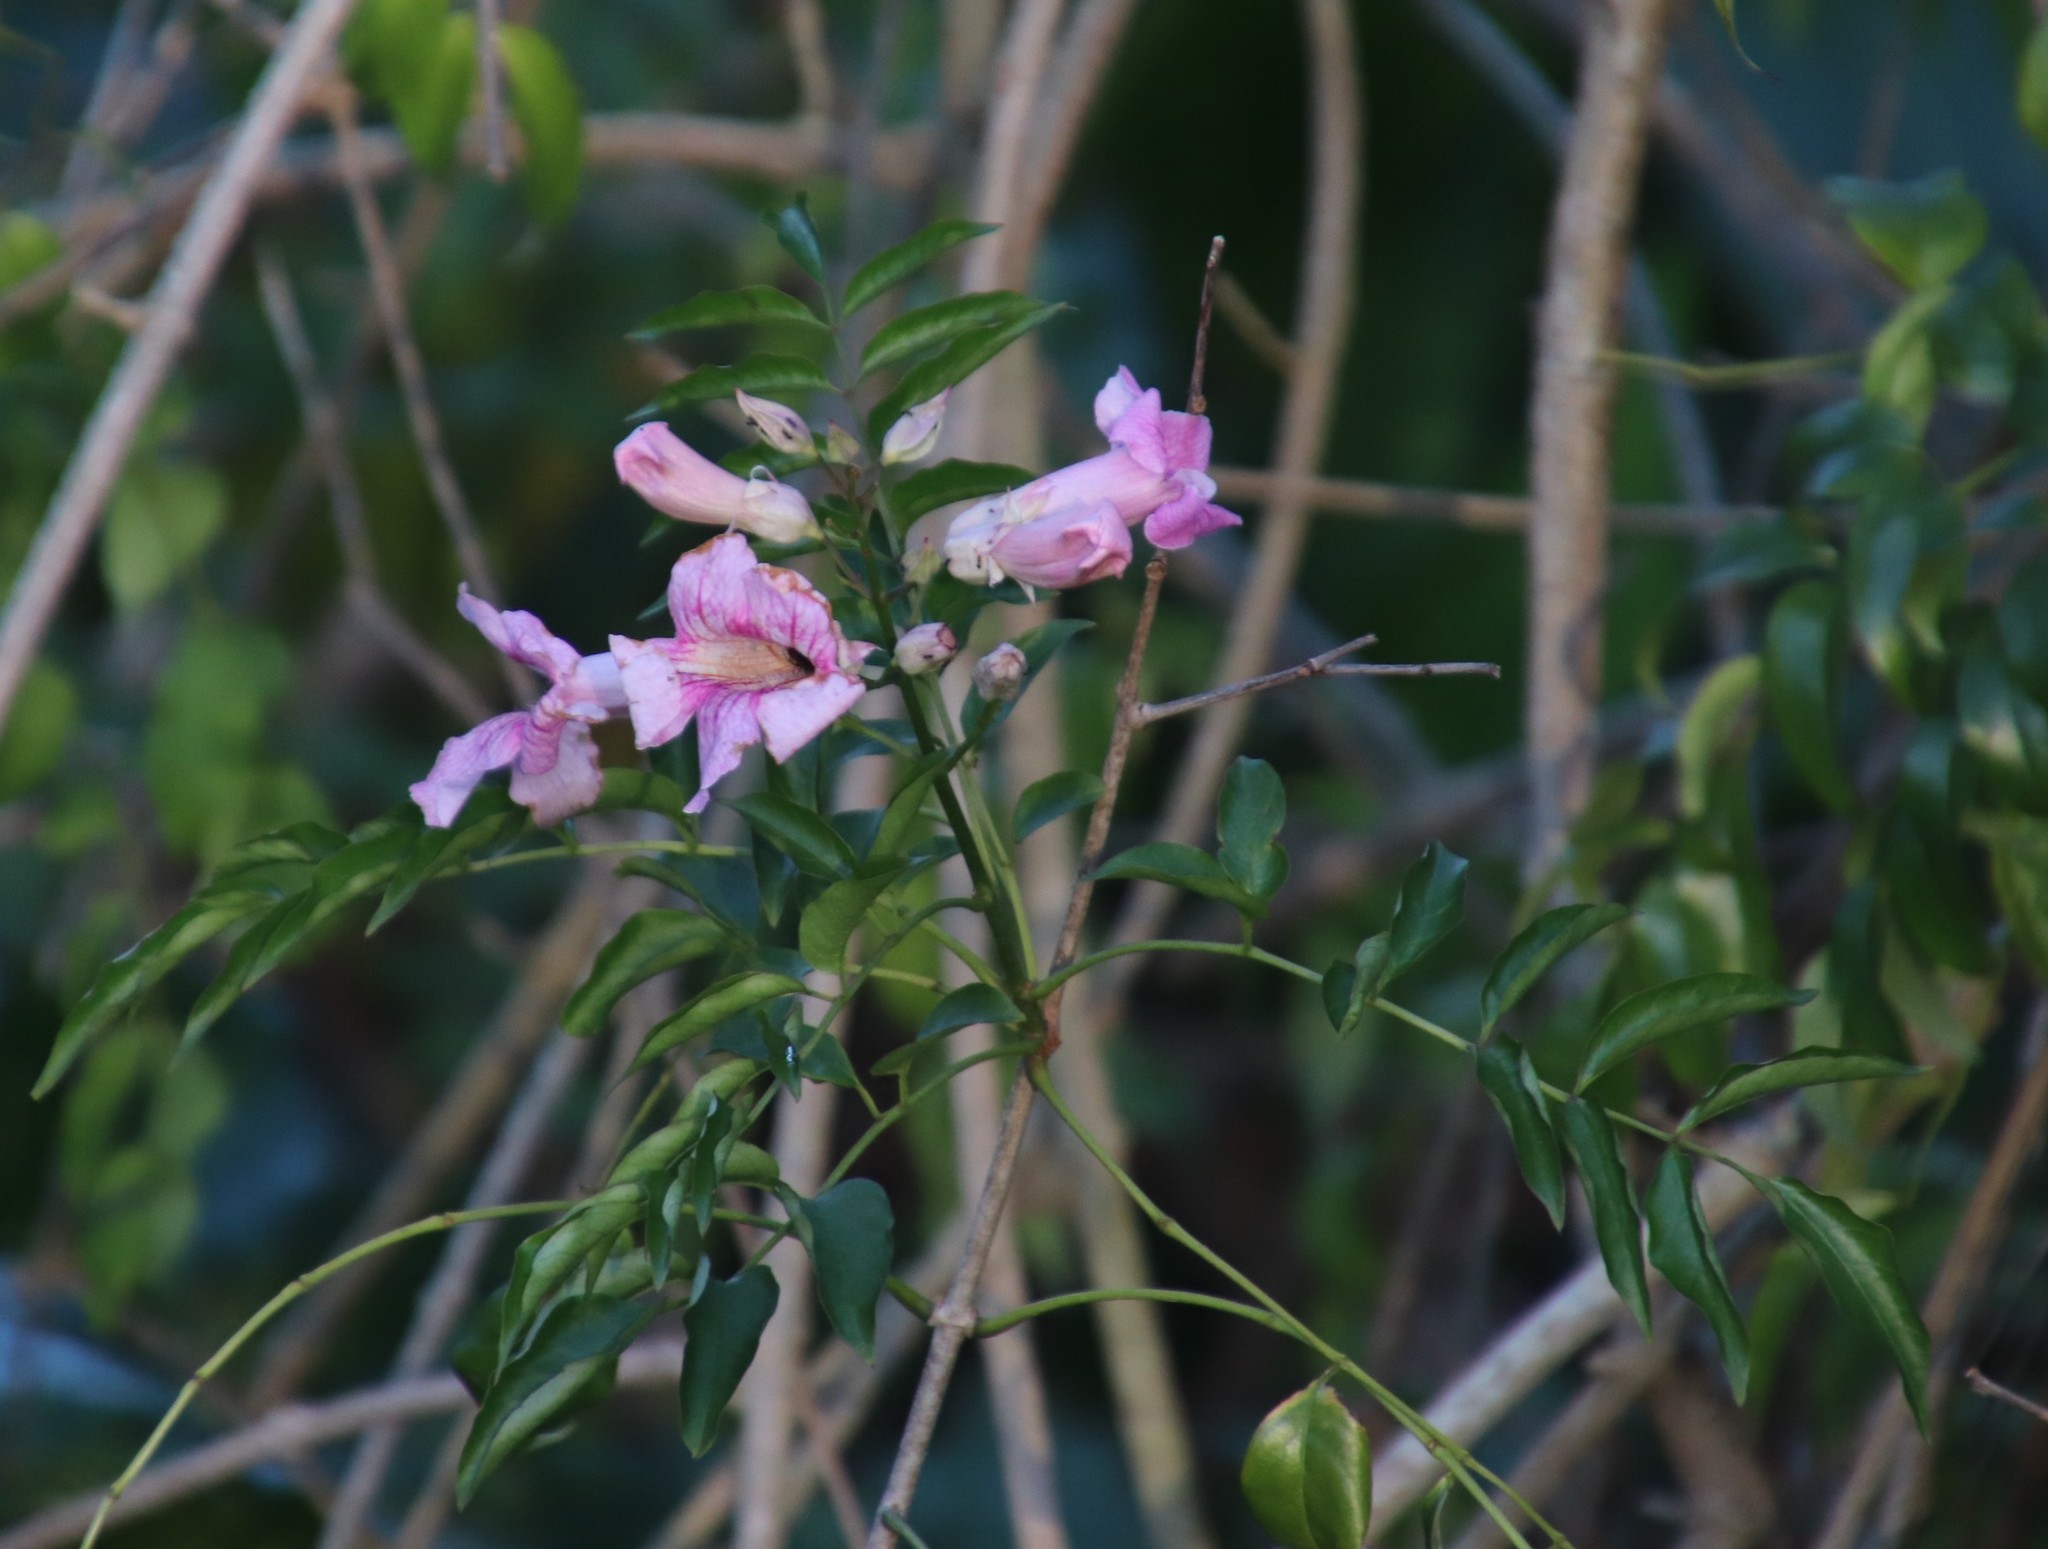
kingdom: Plantae
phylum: Tracheophyta
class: Magnoliopsida
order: Lamiales
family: Bignoniaceae
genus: Podranea
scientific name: Podranea ricasoliana
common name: Zimbabwe creeper
